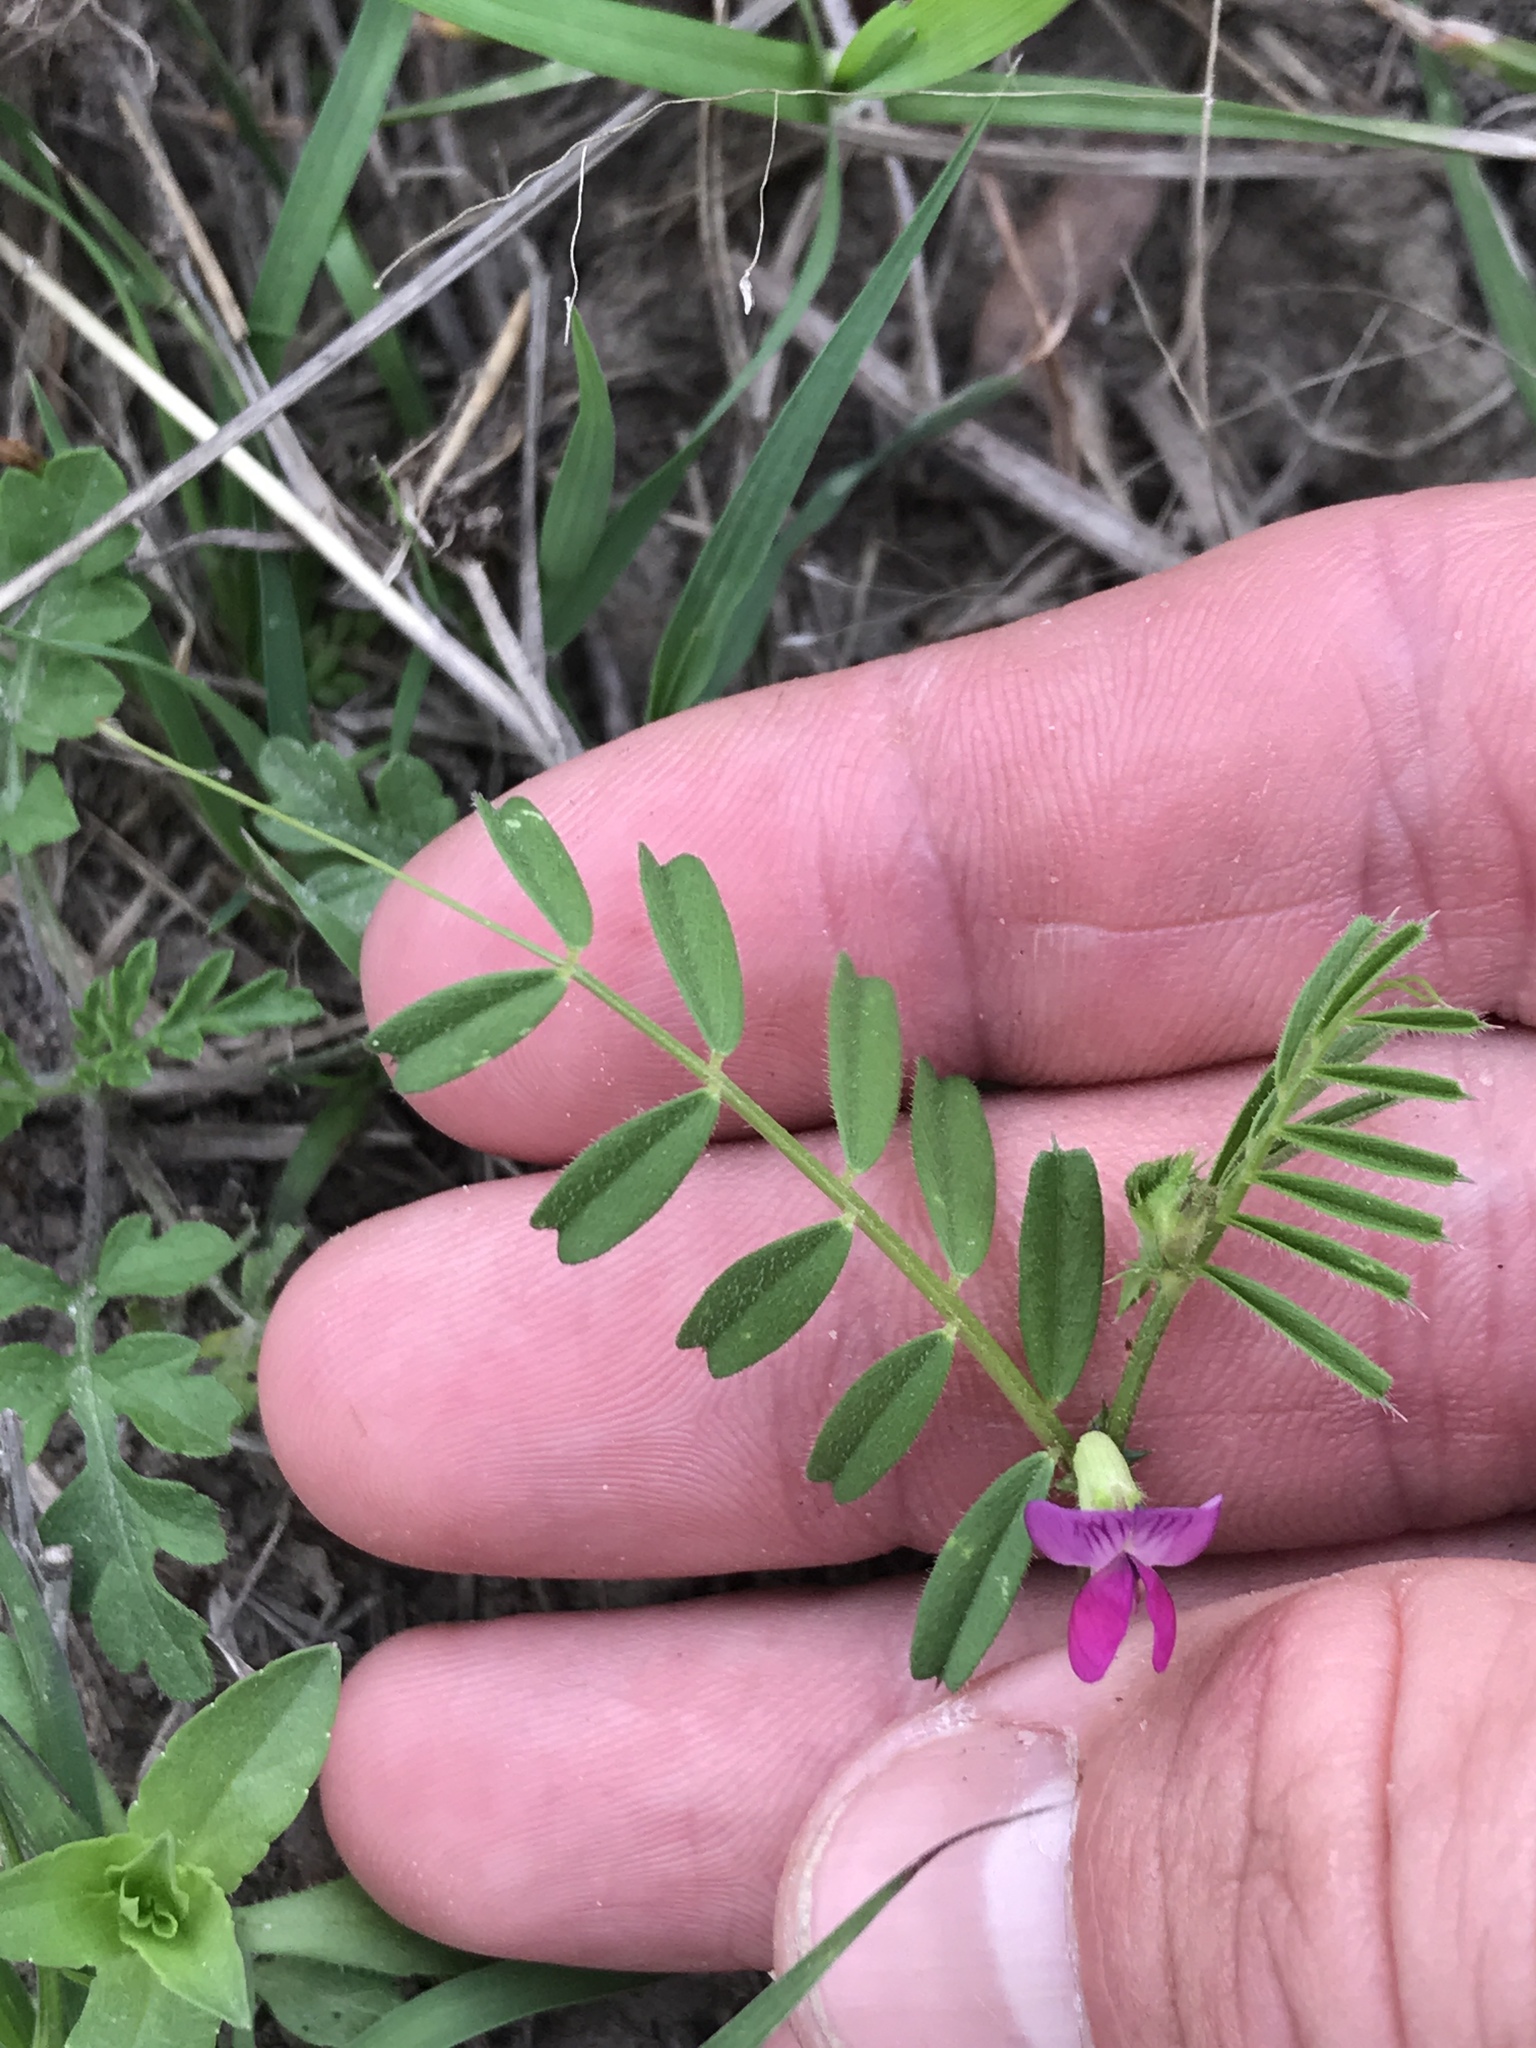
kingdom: Plantae
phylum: Tracheophyta
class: Magnoliopsida
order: Fabales
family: Fabaceae
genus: Vicia
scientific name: Vicia sativa
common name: Garden vetch
